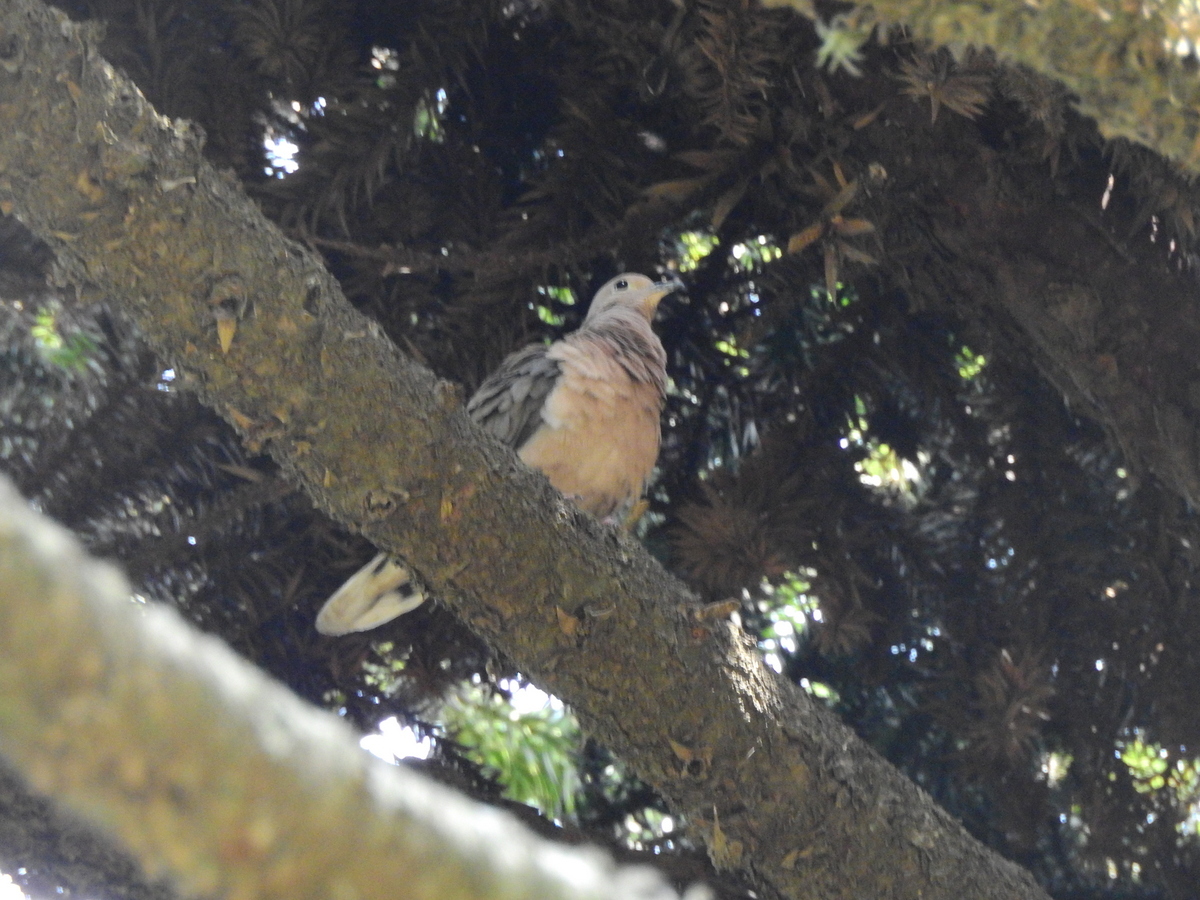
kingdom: Animalia
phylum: Chordata
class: Aves
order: Columbiformes
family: Columbidae
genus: Zenaida
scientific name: Zenaida auriculata
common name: Eared dove
